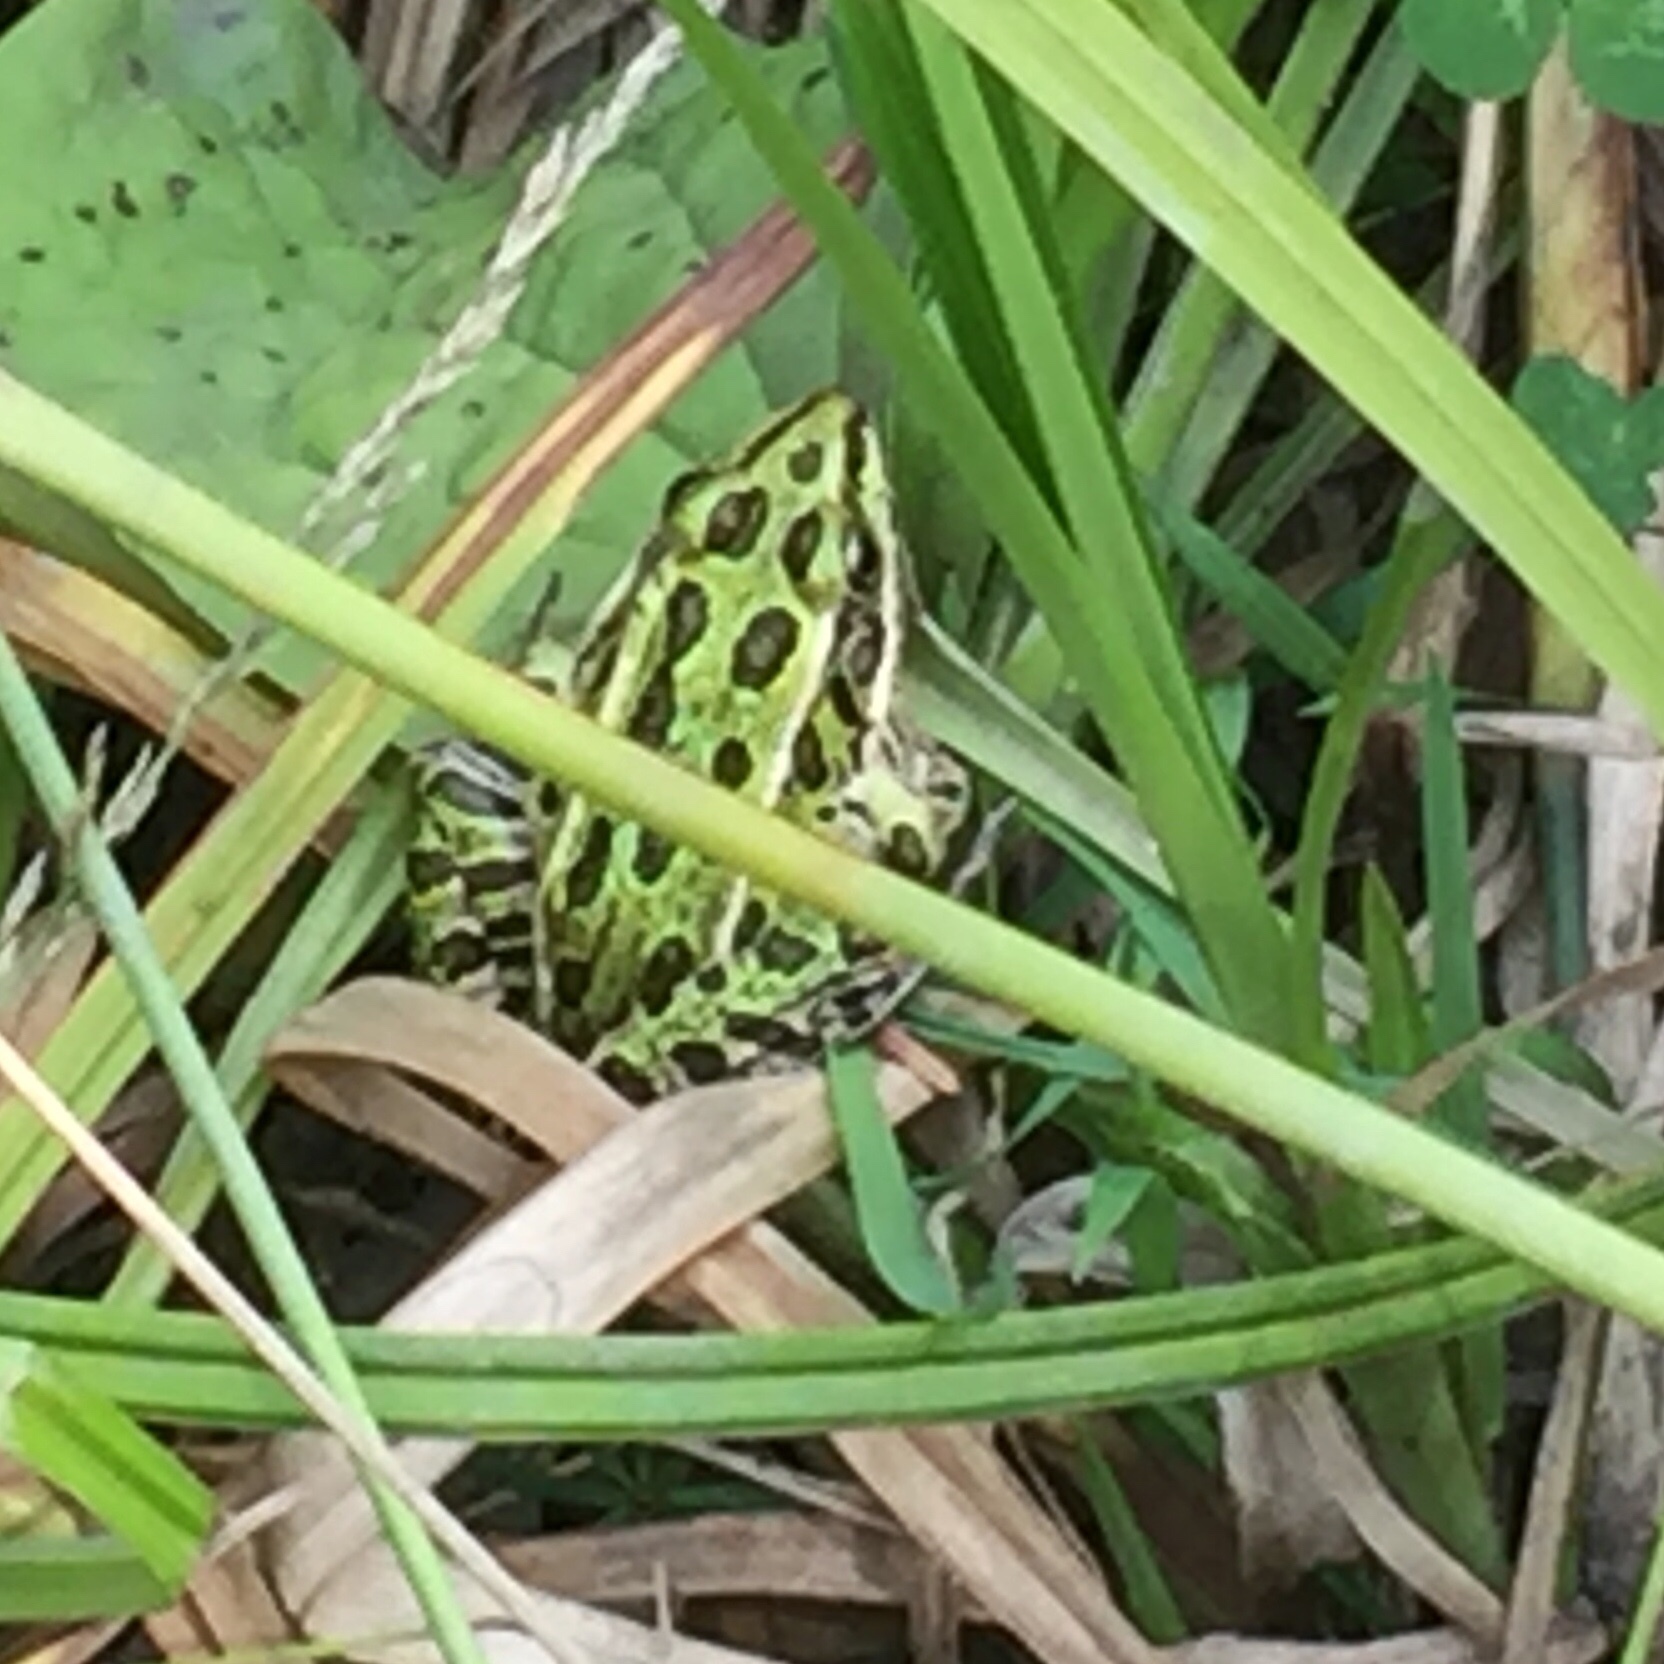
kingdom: Animalia
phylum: Chordata
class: Amphibia
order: Anura
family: Ranidae
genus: Lithobates
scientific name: Lithobates pipiens
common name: Northern leopard frog
